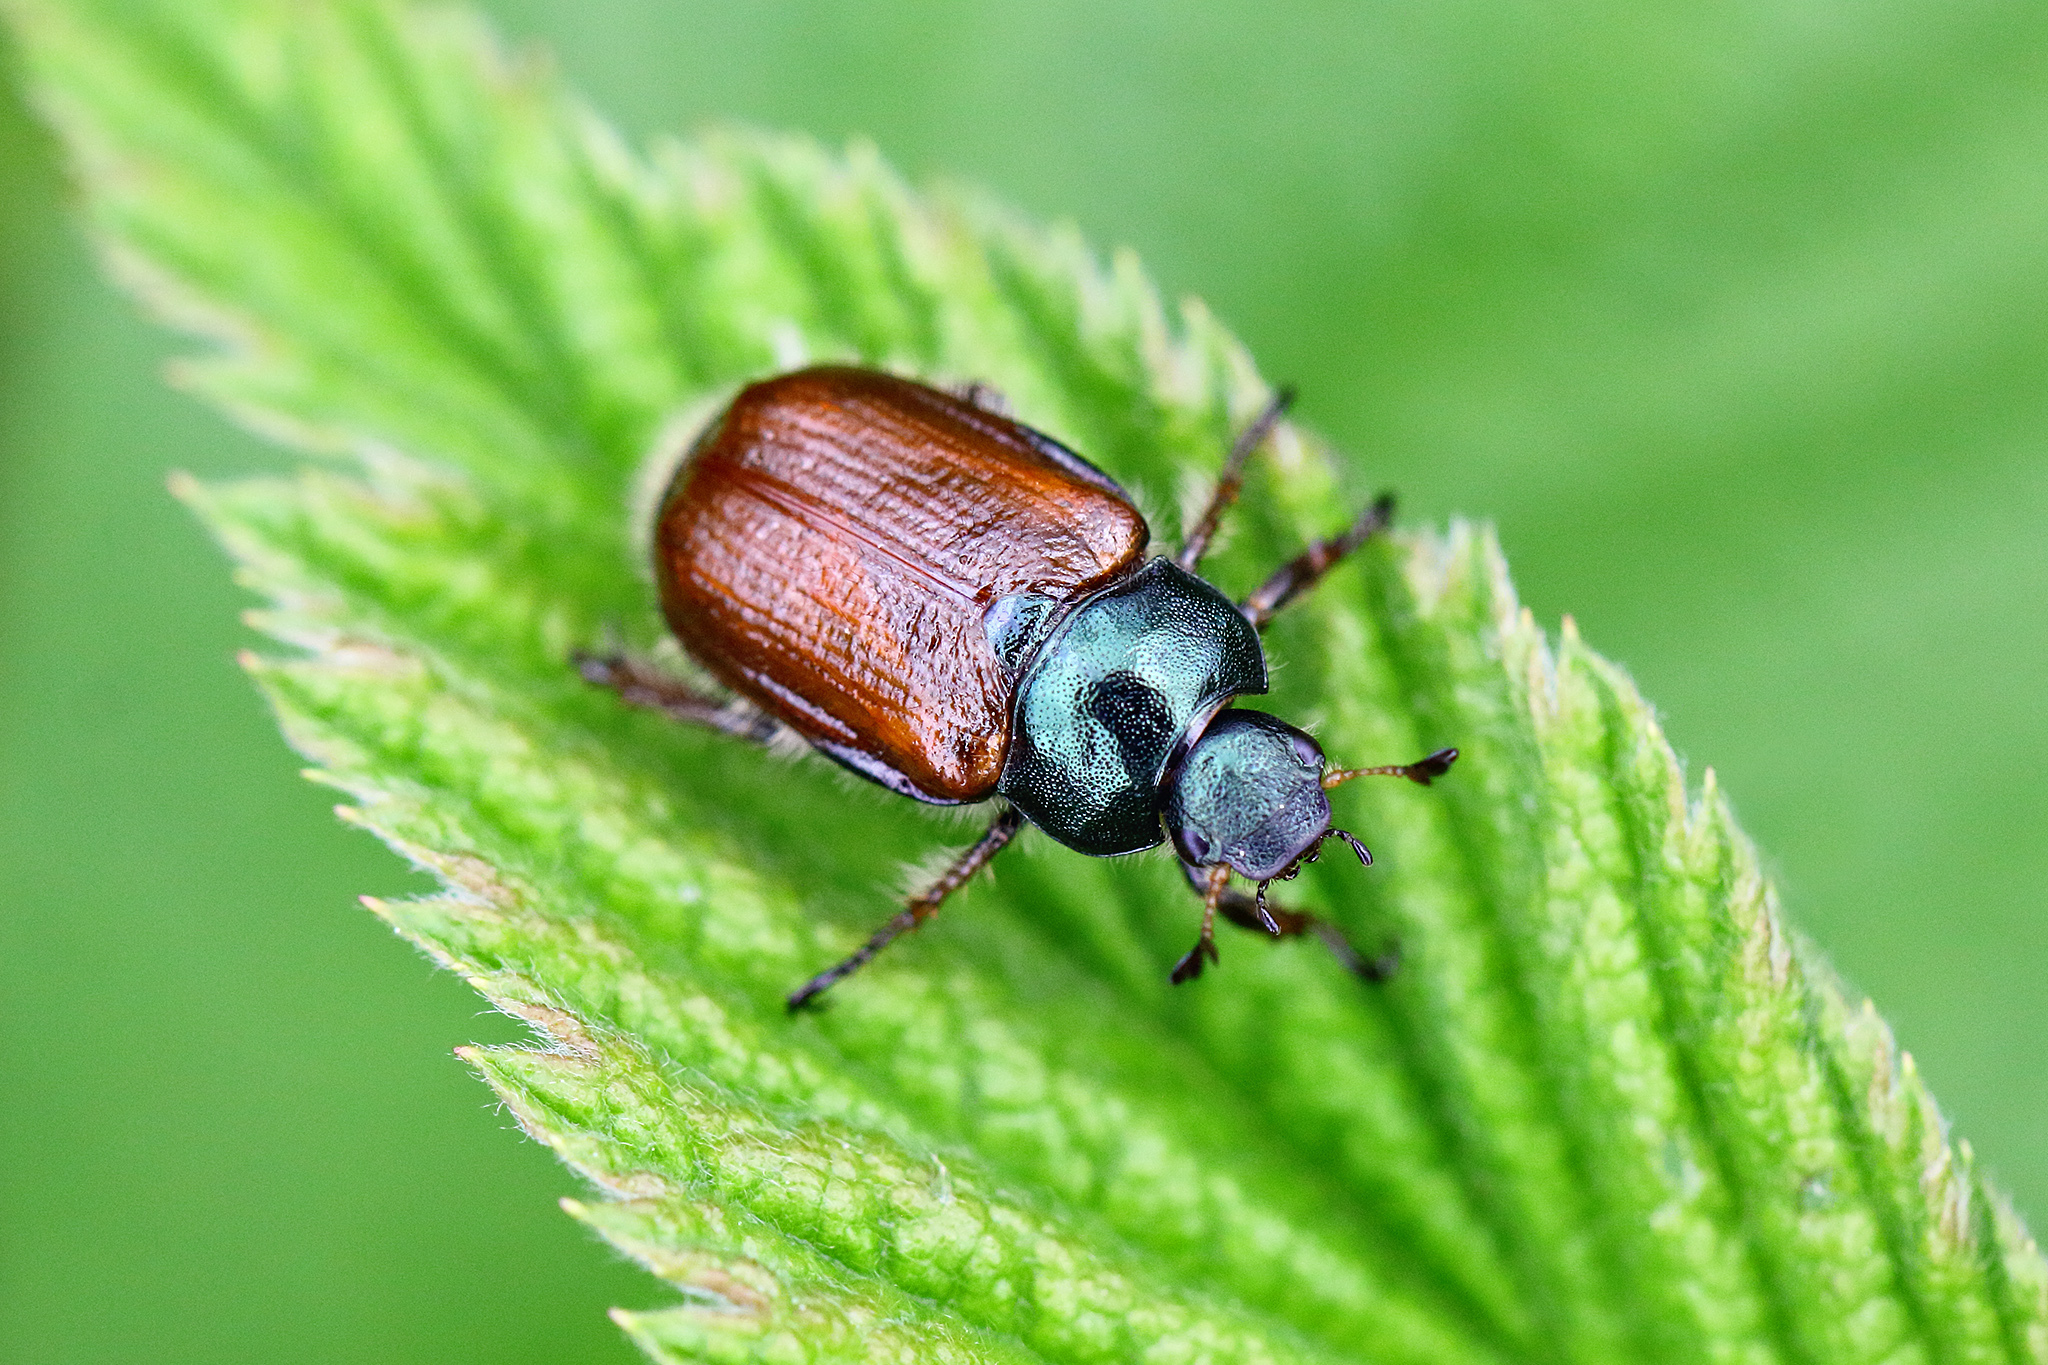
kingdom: Animalia
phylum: Arthropoda
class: Insecta
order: Coleoptera
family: Scarabaeidae
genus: Phyllopertha
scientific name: Phyllopertha horticola
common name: Garden chafer
